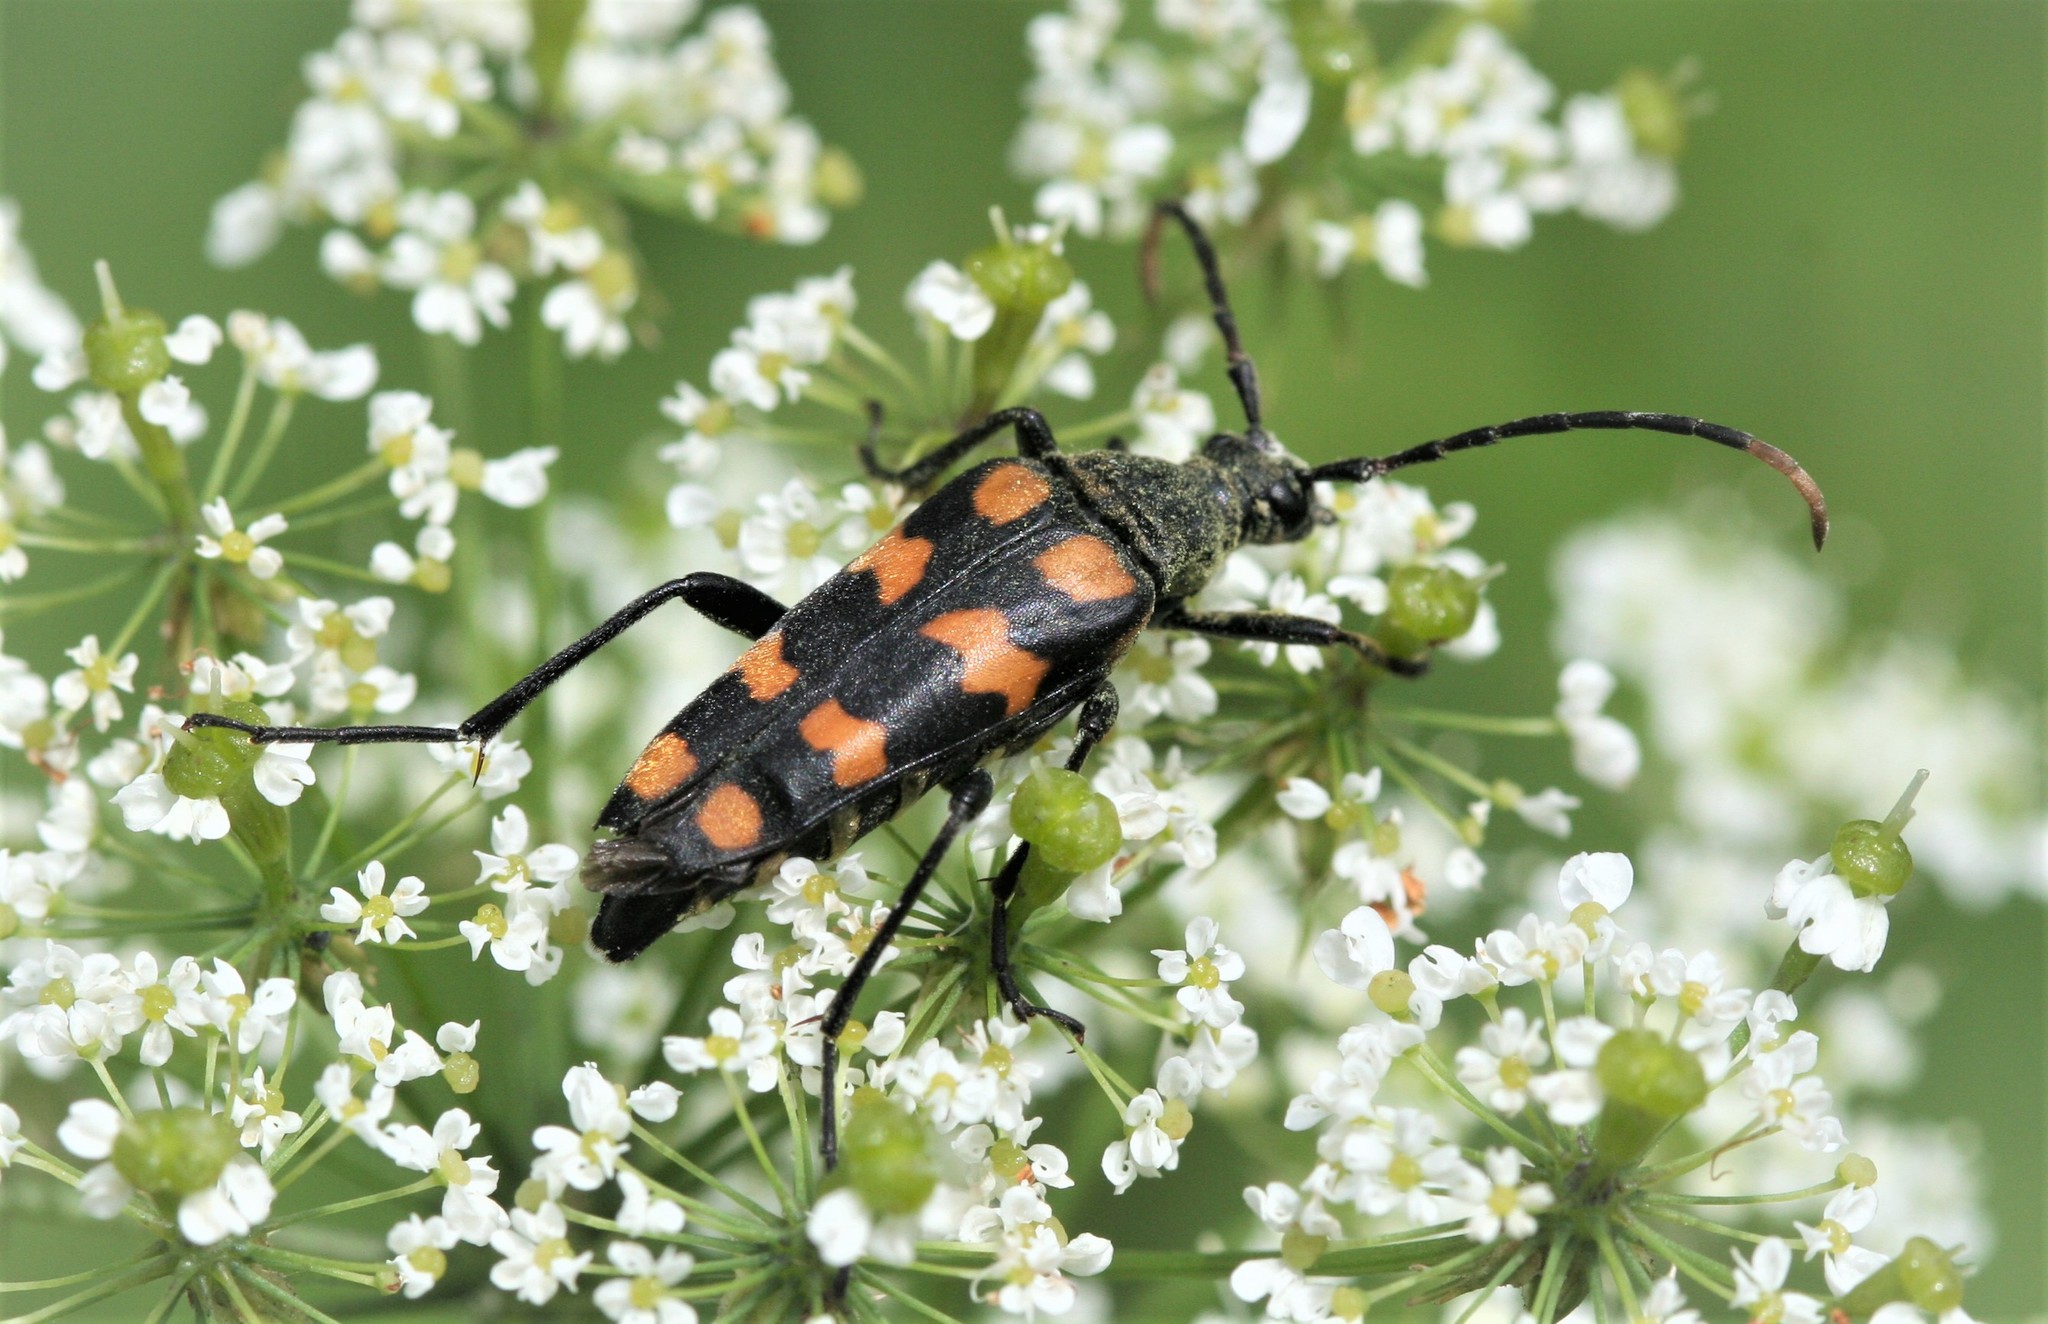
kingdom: Animalia
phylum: Arthropoda
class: Insecta
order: Coleoptera
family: Cerambycidae
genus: Leptura
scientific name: Leptura quadrifasciata
